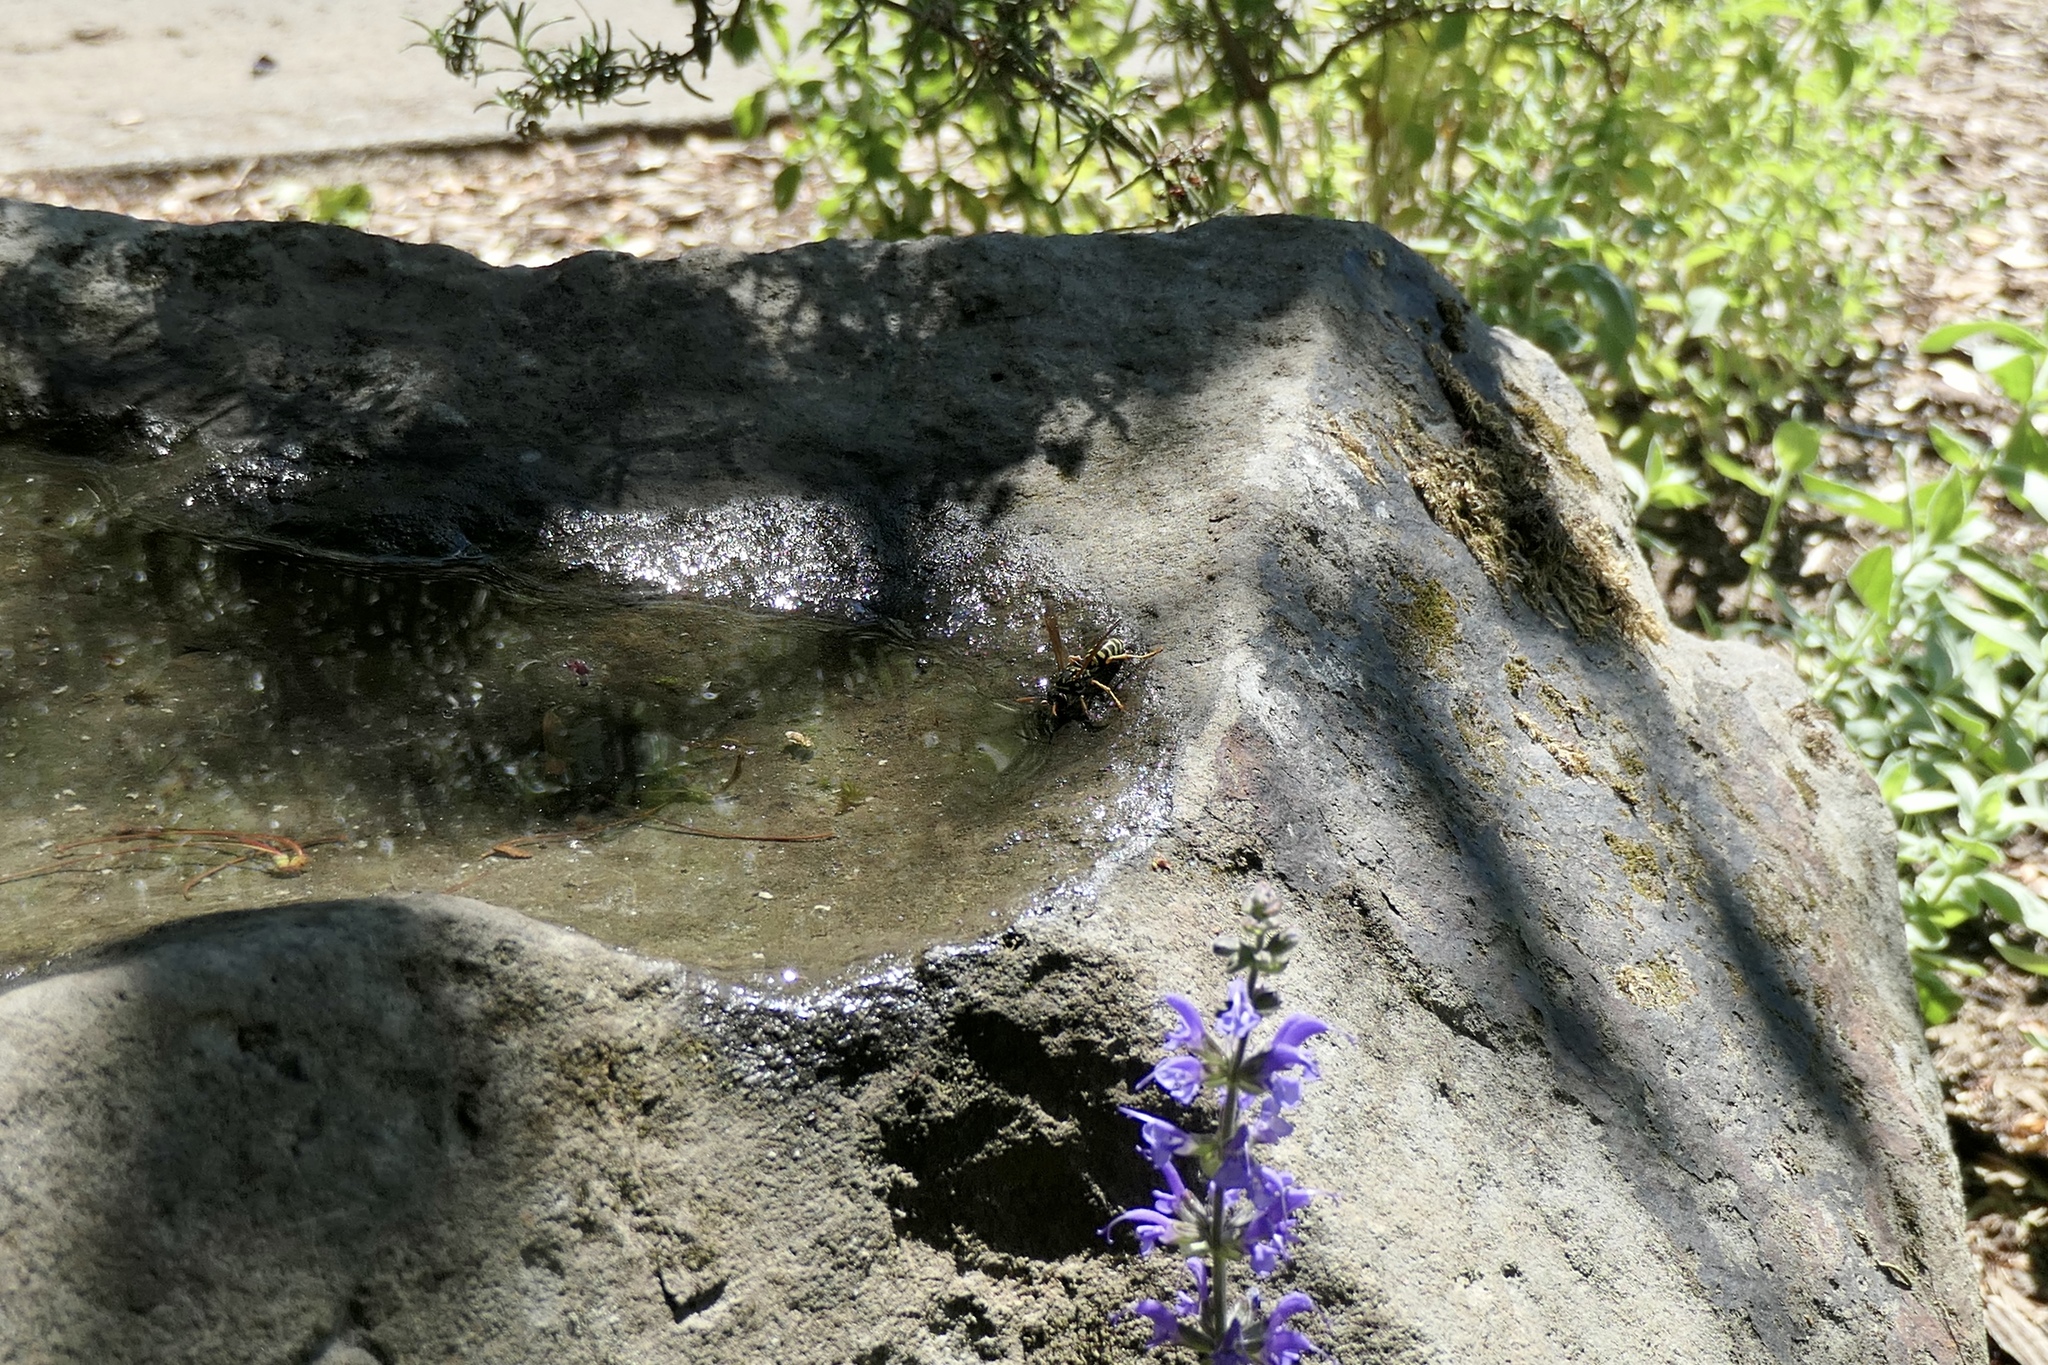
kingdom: Animalia
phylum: Arthropoda
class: Insecta
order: Hymenoptera
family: Eumenidae
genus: Polistes
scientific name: Polistes dominula
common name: Paper wasp
